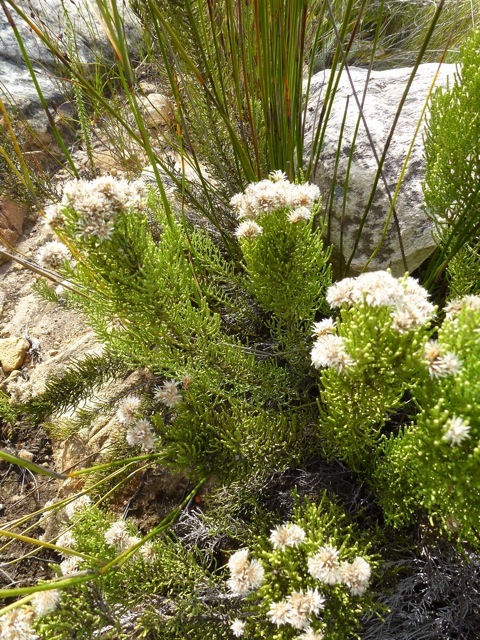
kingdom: Plantae
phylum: Tracheophyta
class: Magnoliopsida
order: Asterales
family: Asteraceae
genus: Dolichothrix
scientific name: Dolichothrix ericoides
